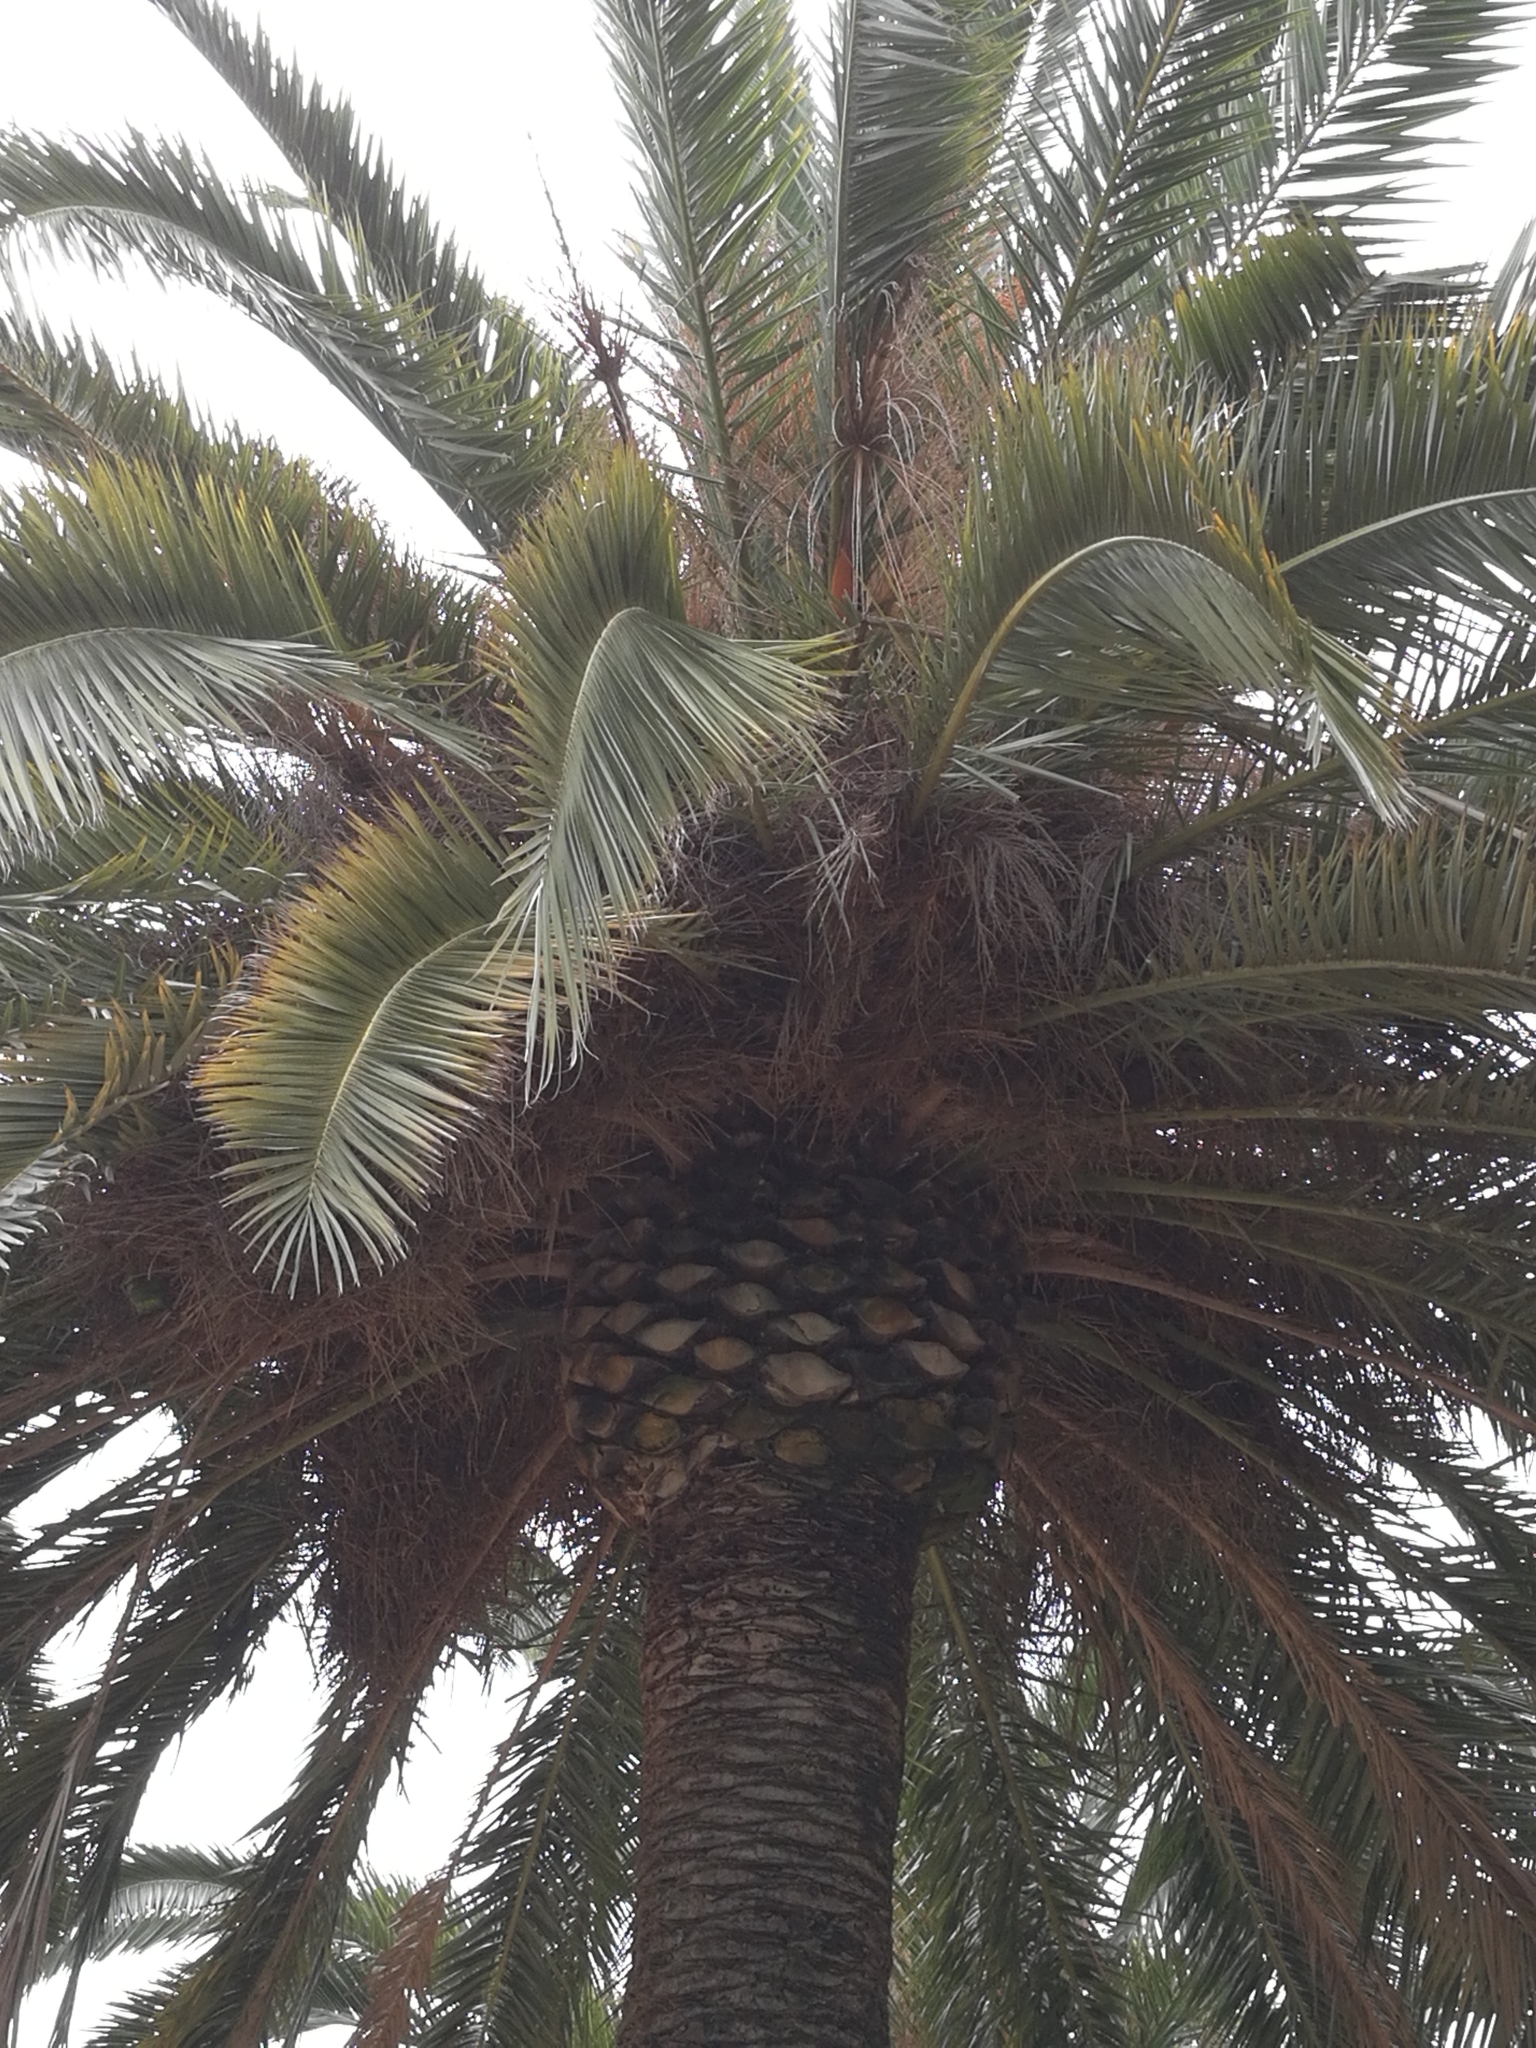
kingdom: Animalia
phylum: Chordata
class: Aves
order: Psittaciformes
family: Psittacidae
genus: Myiopsitta
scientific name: Myiopsitta monachus
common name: Monk parakeet
